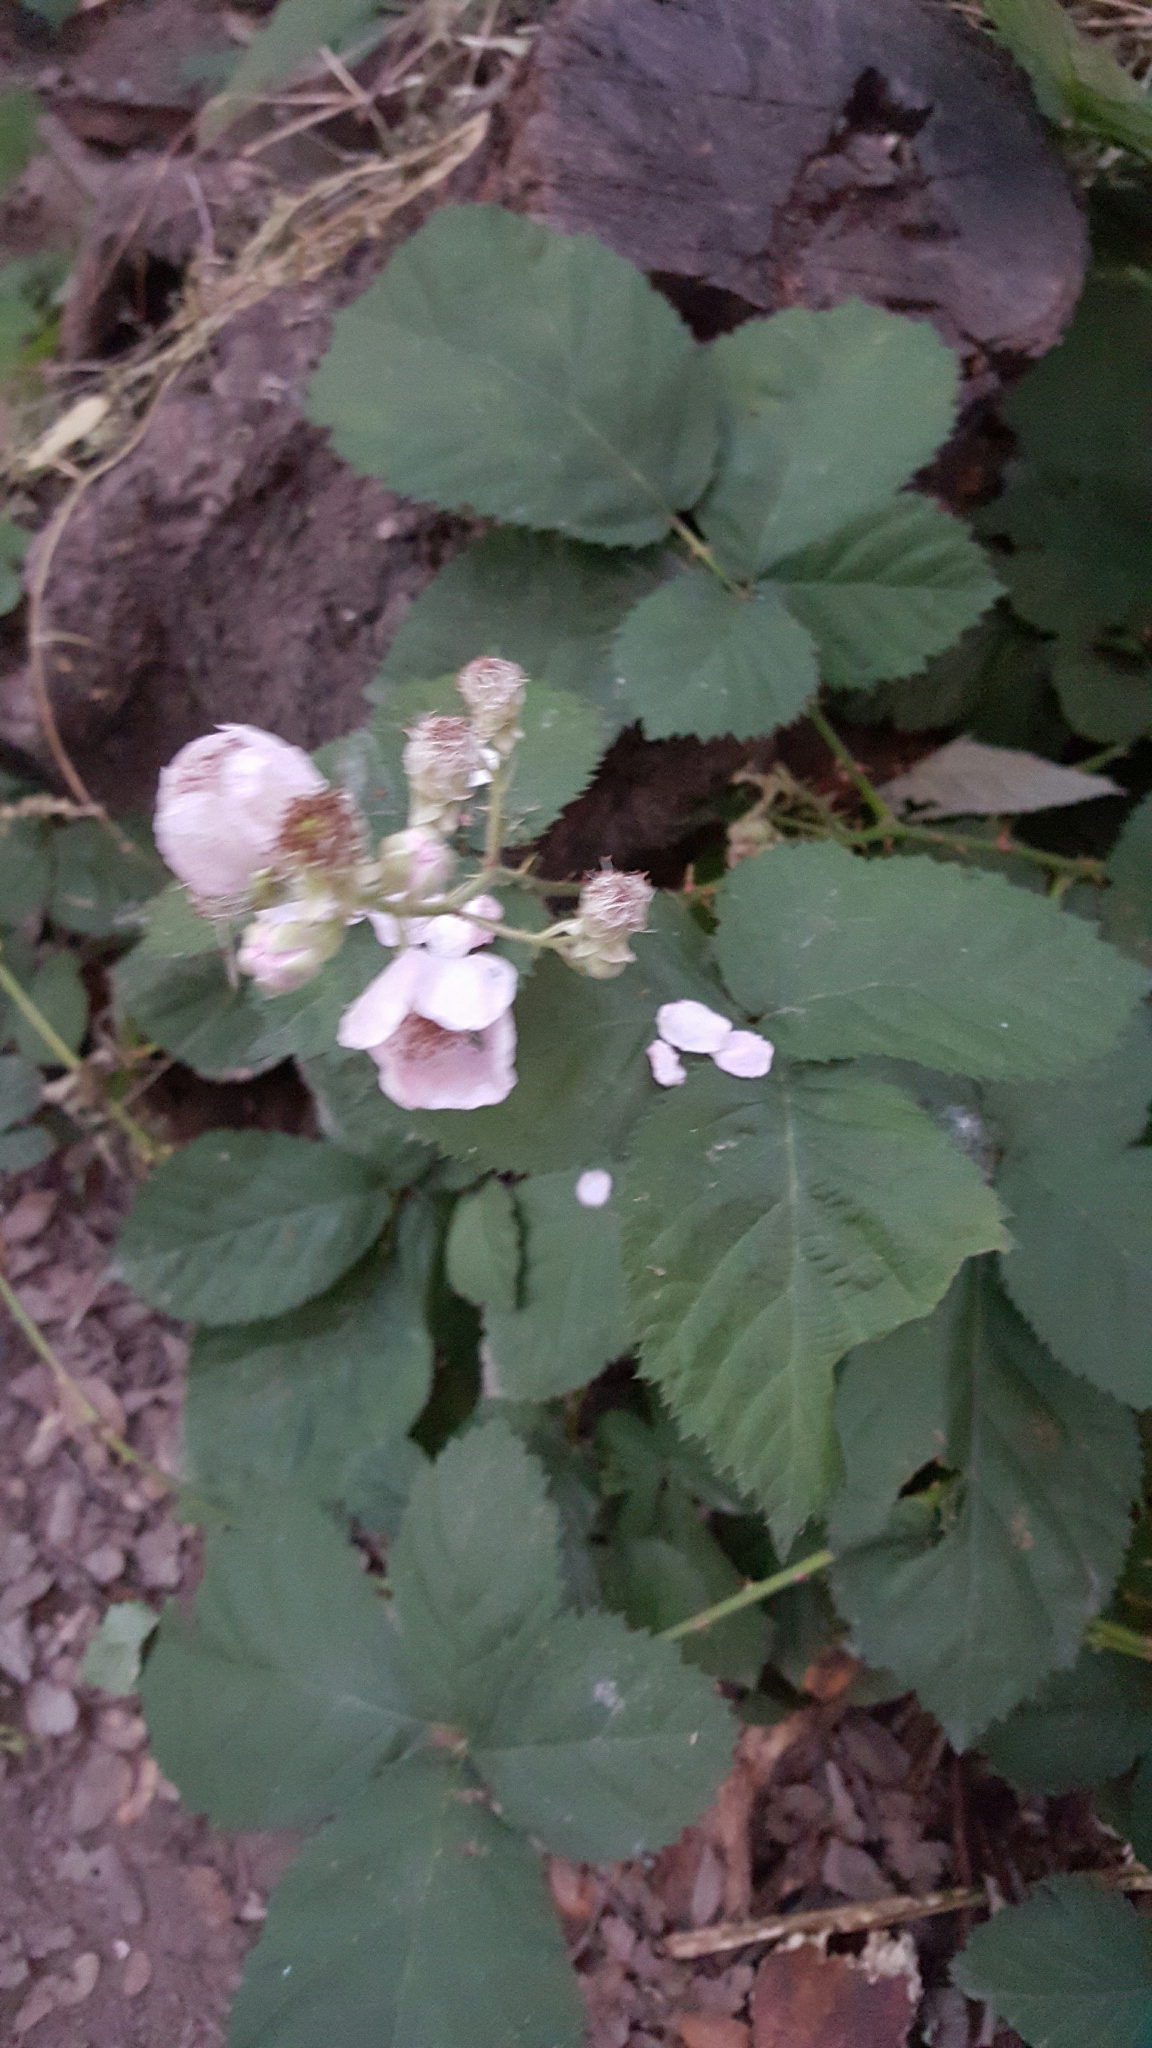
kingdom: Plantae
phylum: Tracheophyta
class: Magnoliopsida
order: Rosales
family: Rosaceae
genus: Rubus
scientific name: Rubus armeniacus
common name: Himalayan blackberry
